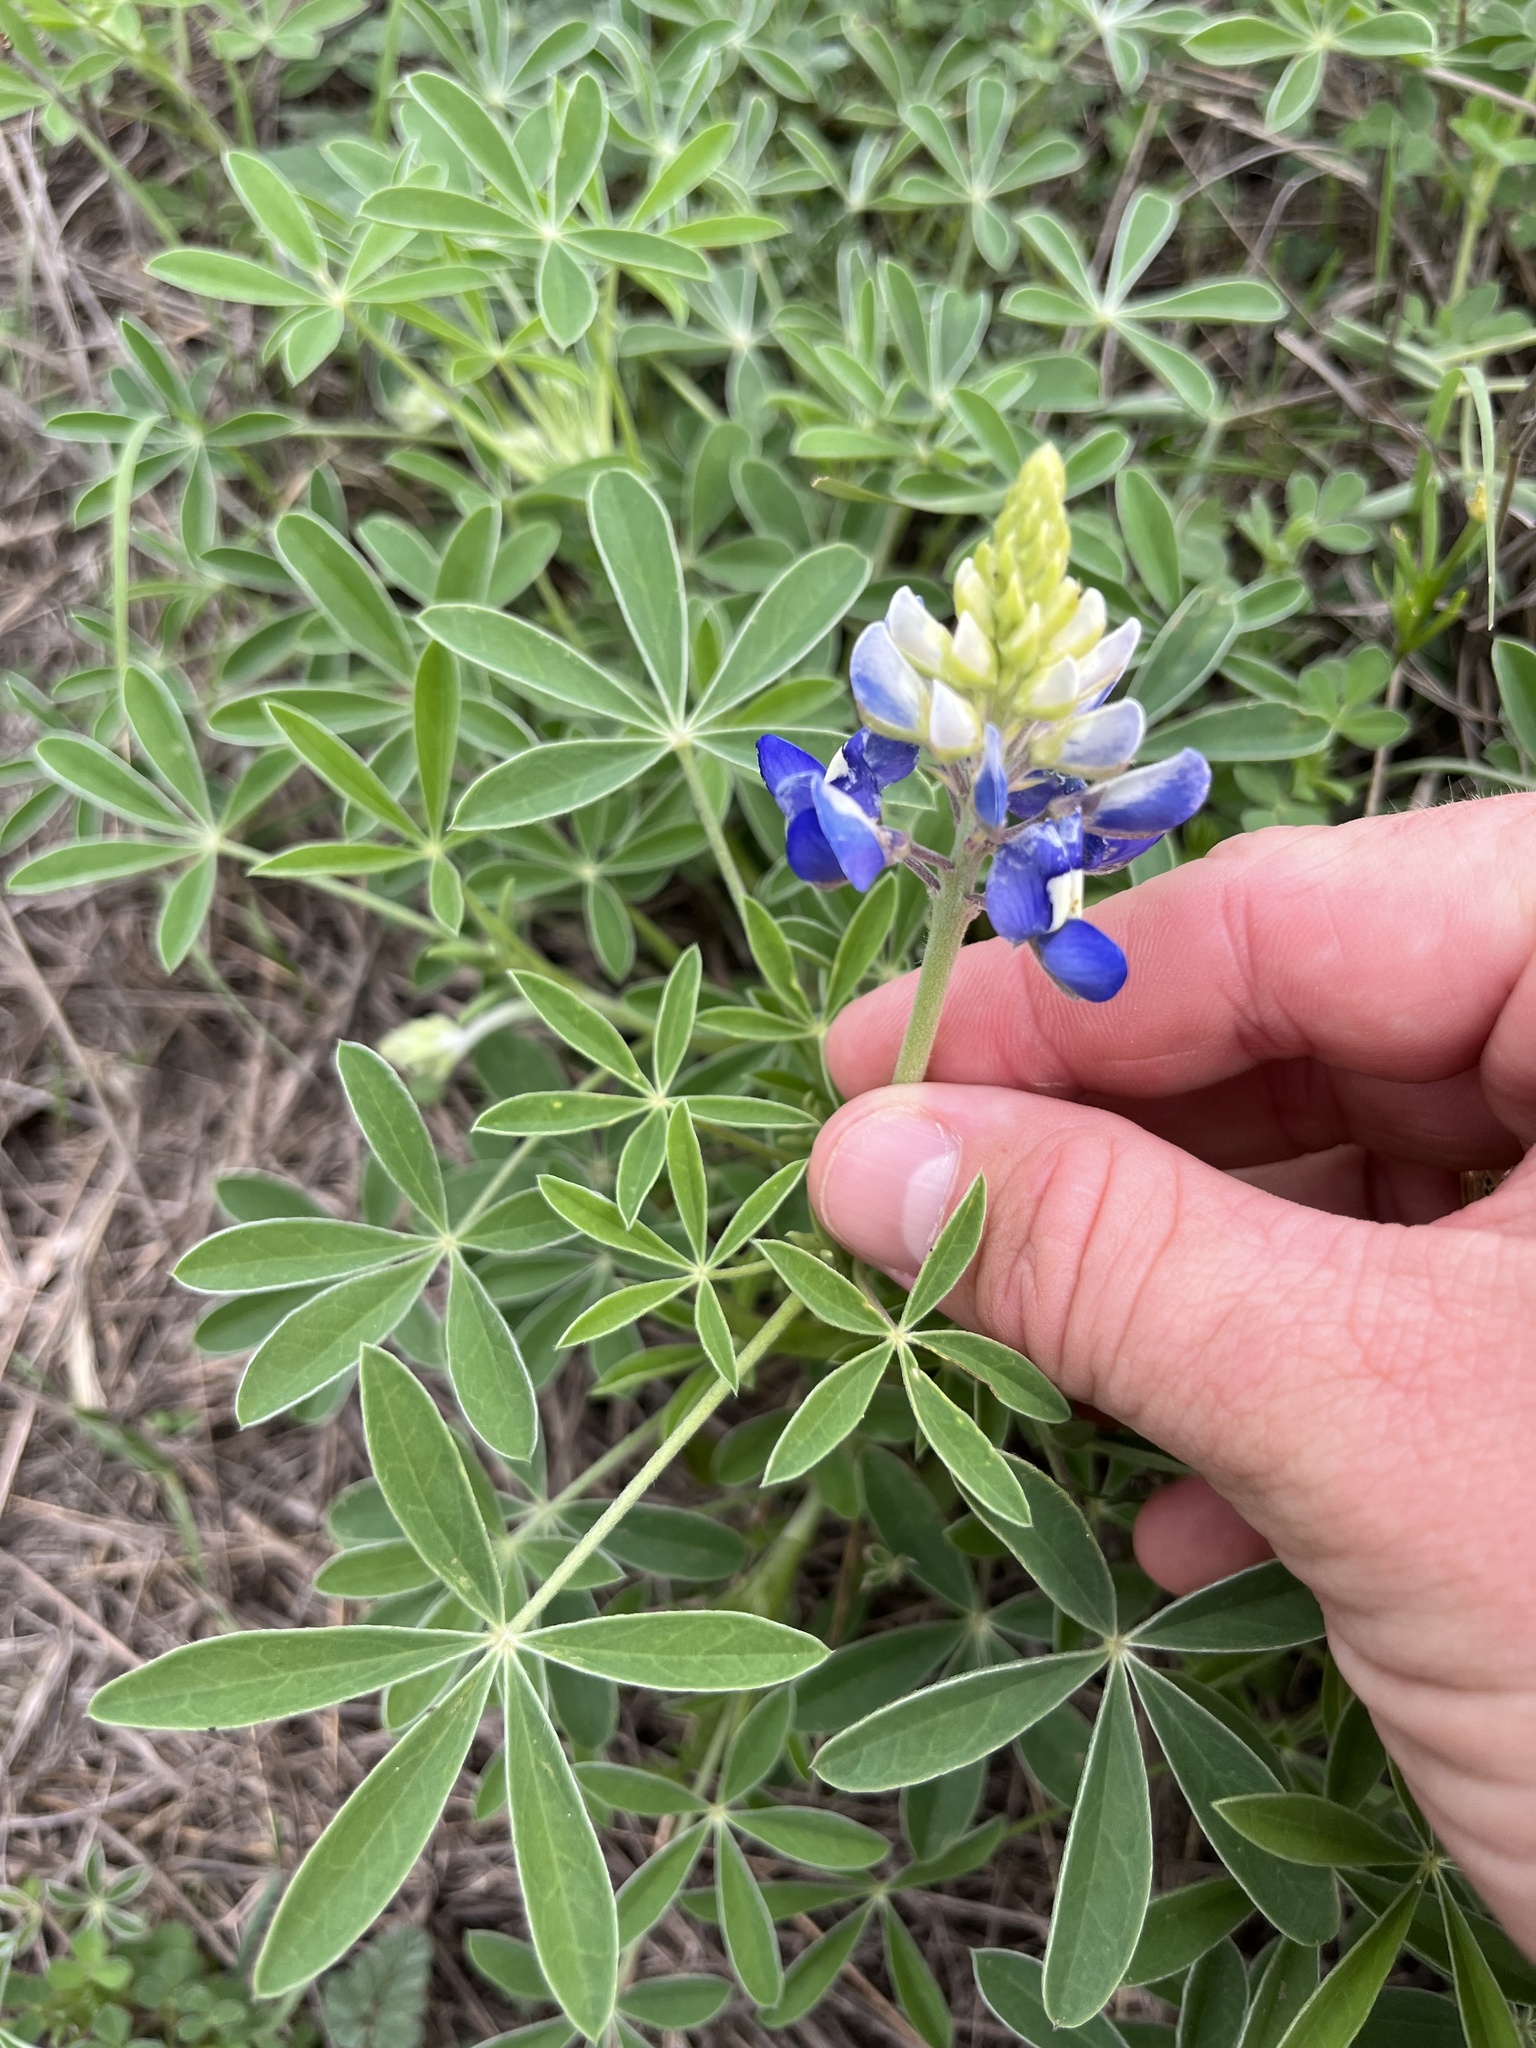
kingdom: Plantae
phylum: Tracheophyta
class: Magnoliopsida
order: Fabales
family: Fabaceae
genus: Lupinus
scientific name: Lupinus texensis
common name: Texas bluebonnet
